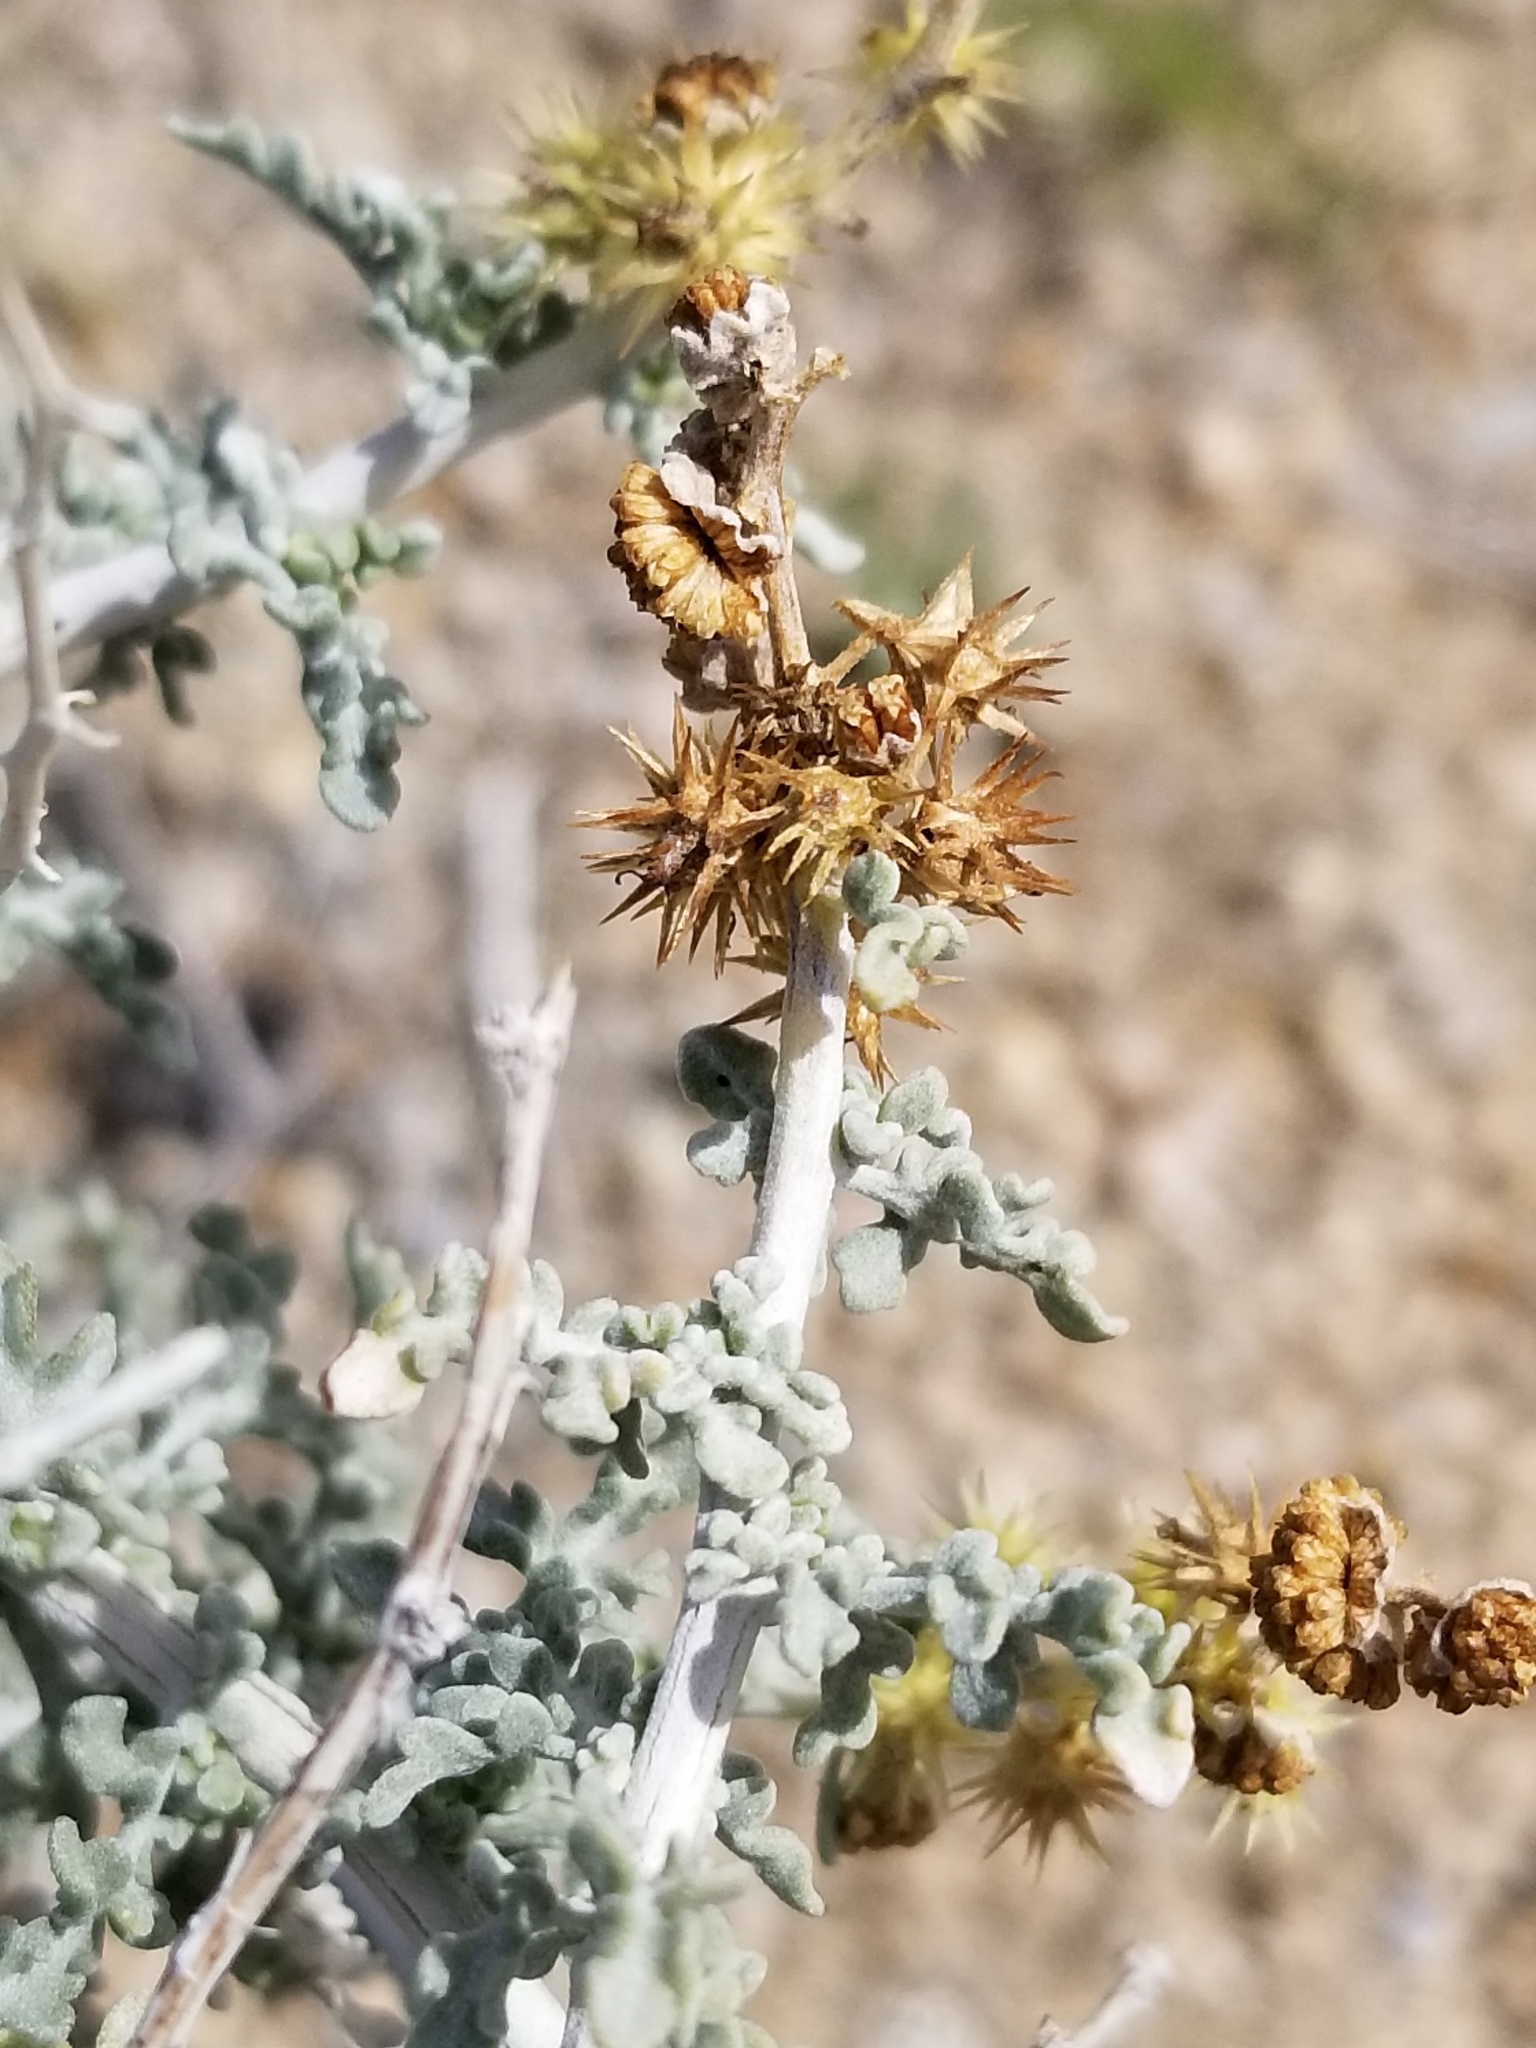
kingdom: Plantae
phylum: Tracheophyta
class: Magnoliopsida
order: Asterales
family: Asteraceae
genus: Ambrosia
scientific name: Ambrosia dumosa
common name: Bur-sage
